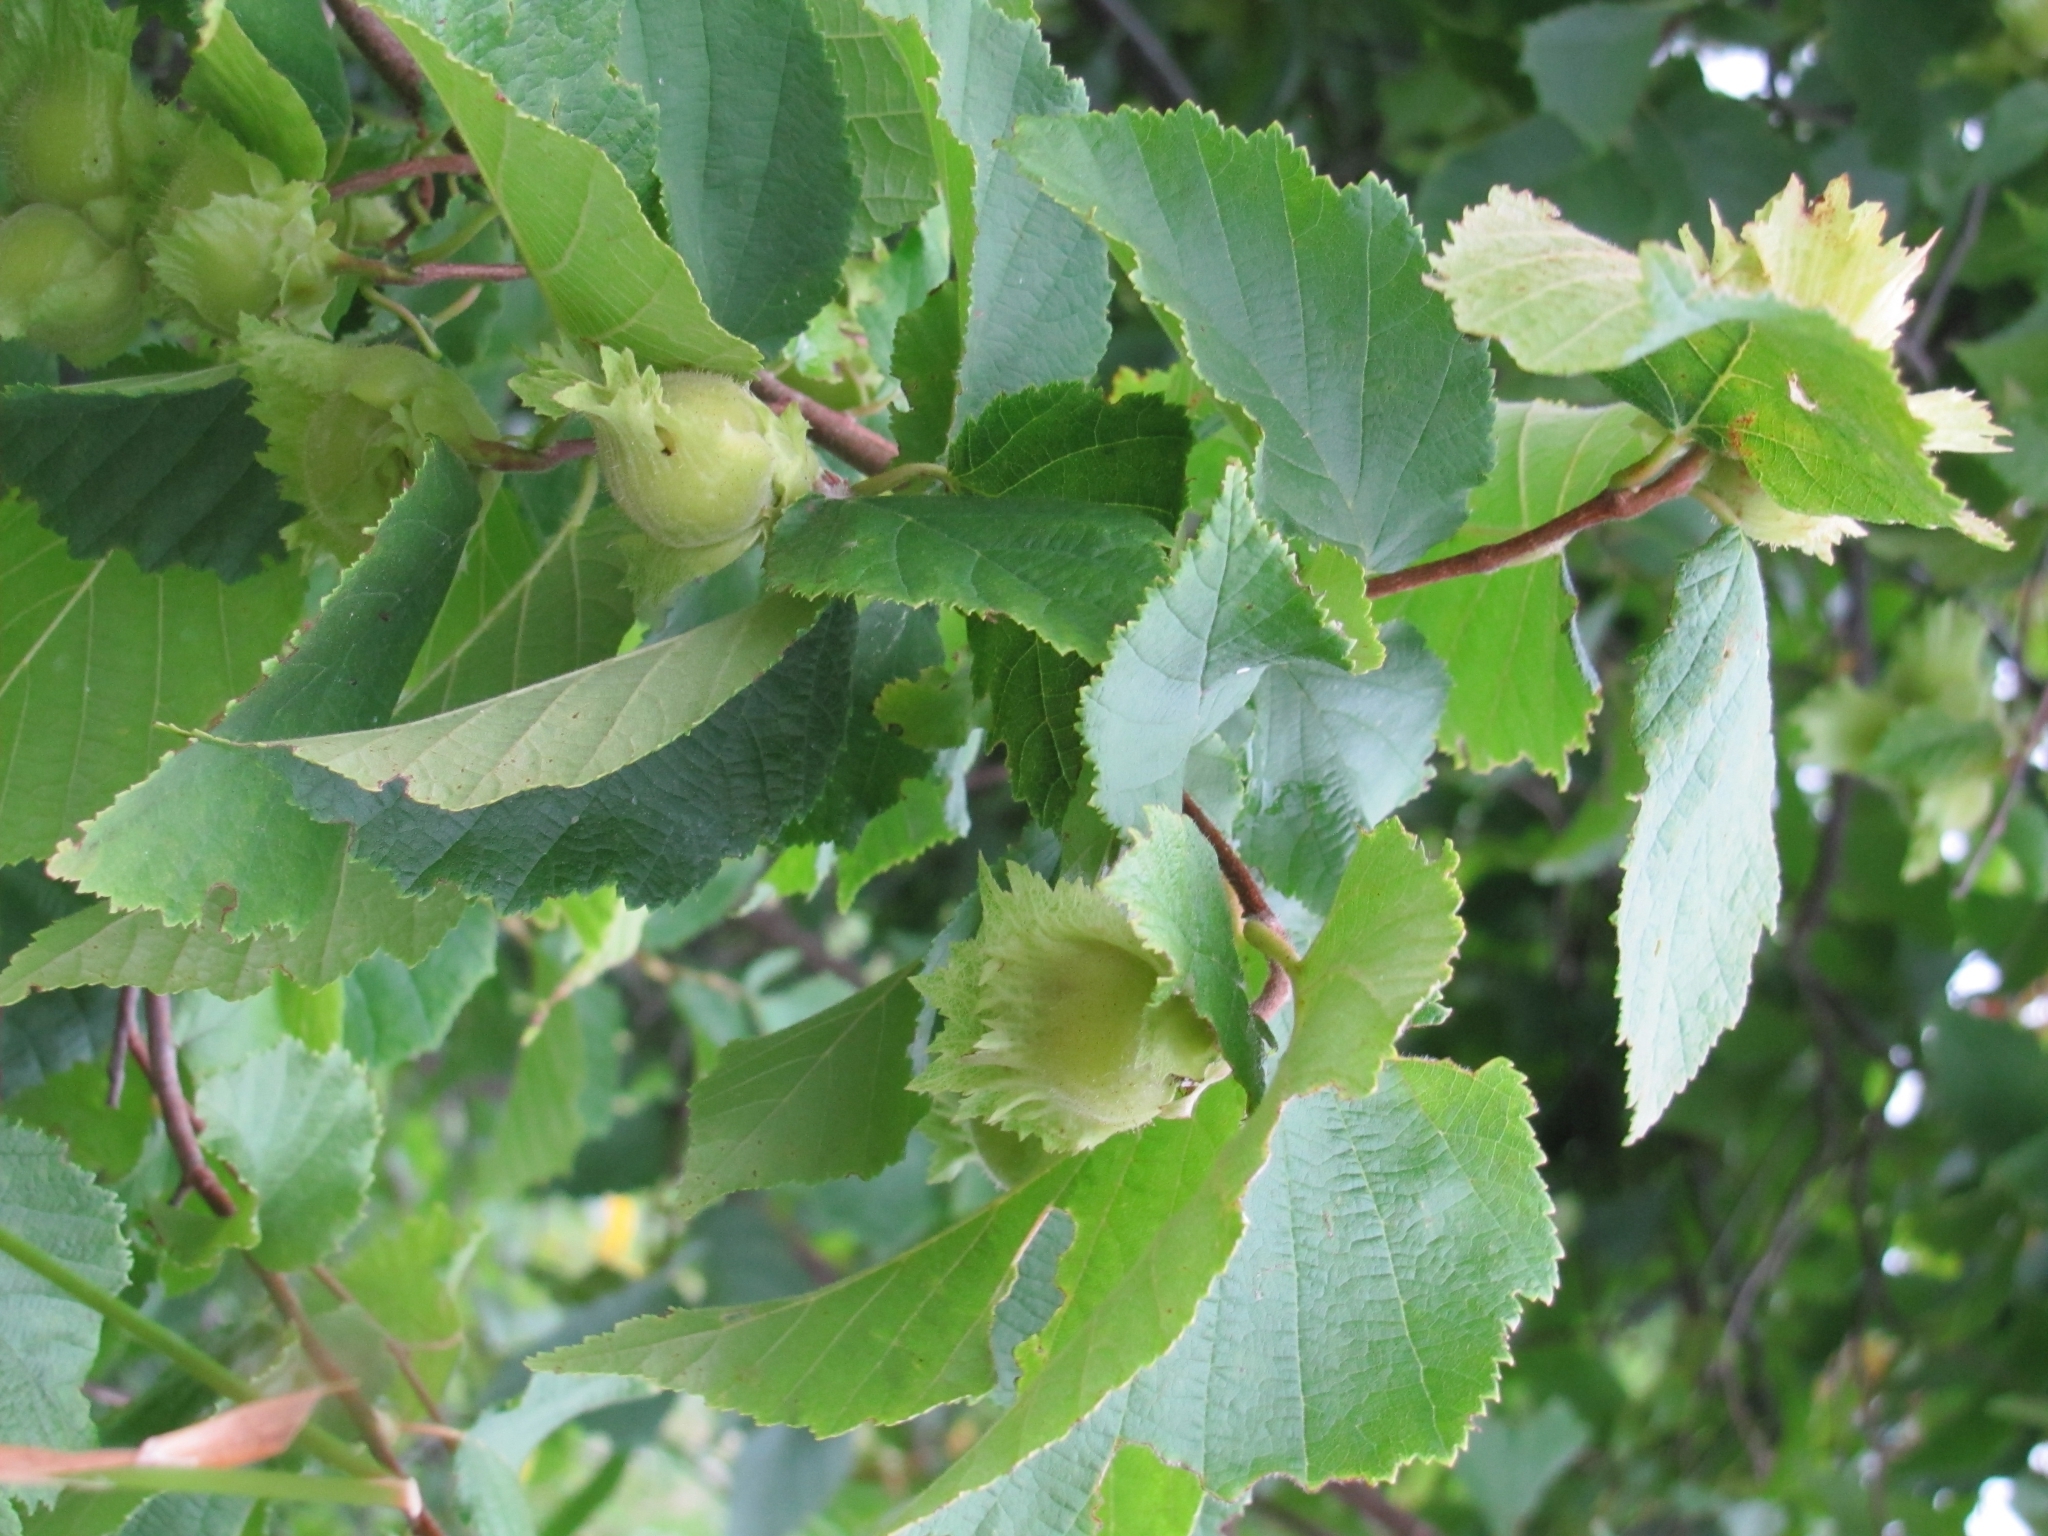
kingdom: Plantae
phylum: Tracheophyta
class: Magnoliopsida
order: Fagales
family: Betulaceae
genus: Corylus
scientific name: Corylus cornuta
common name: Beaked hazel
